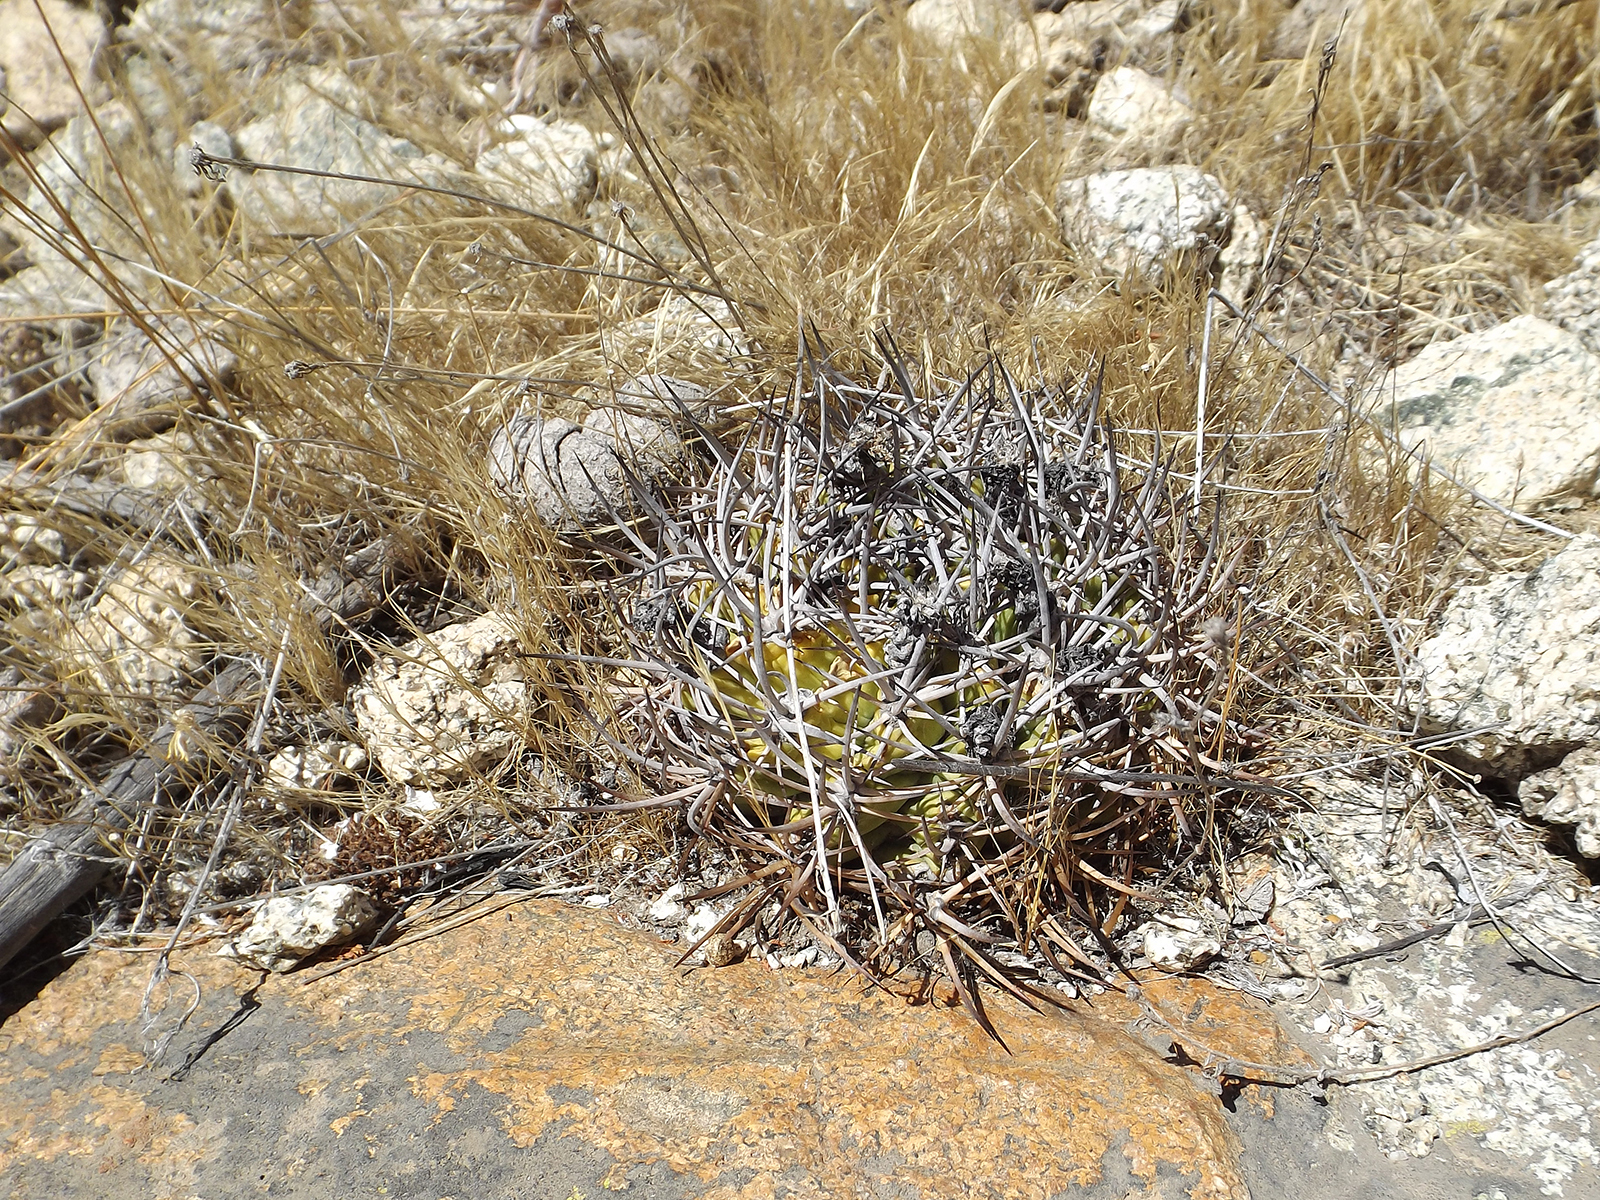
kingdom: Plantae
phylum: Tracheophyta
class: Magnoliopsida
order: Caryophyllales
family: Cactaceae
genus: Eriosyce
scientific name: Eriosyce curvispina
